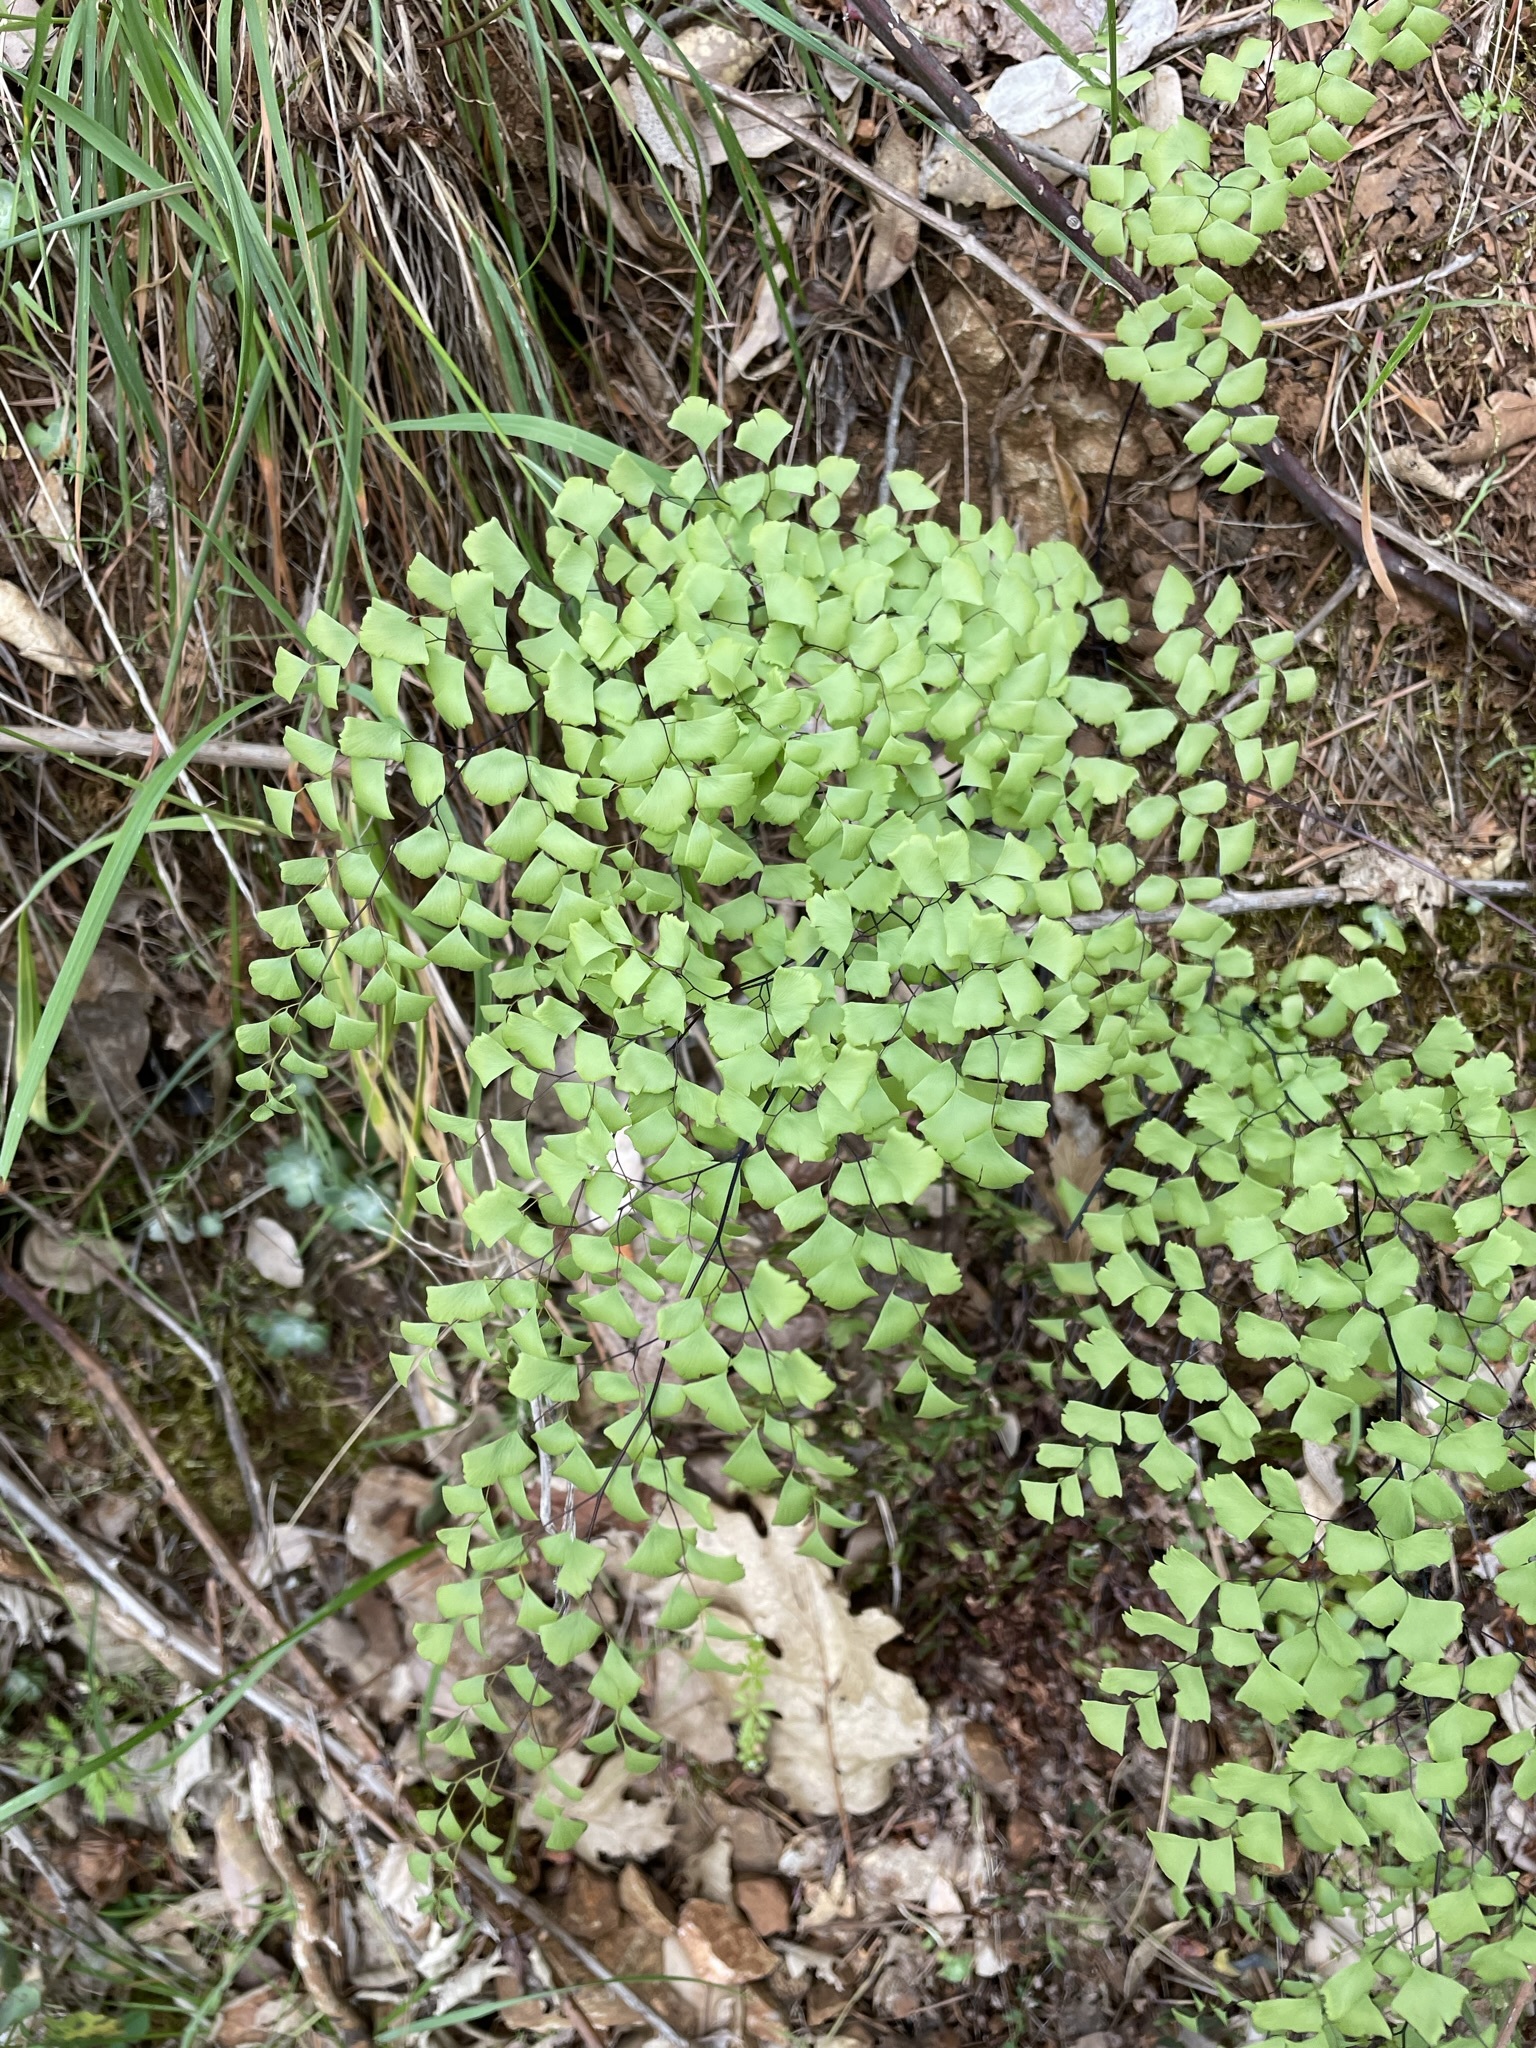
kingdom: Plantae
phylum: Tracheophyta
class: Polypodiopsida
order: Polypodiales
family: Pteridaceae
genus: Adiantum
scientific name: Adiantum shastense
